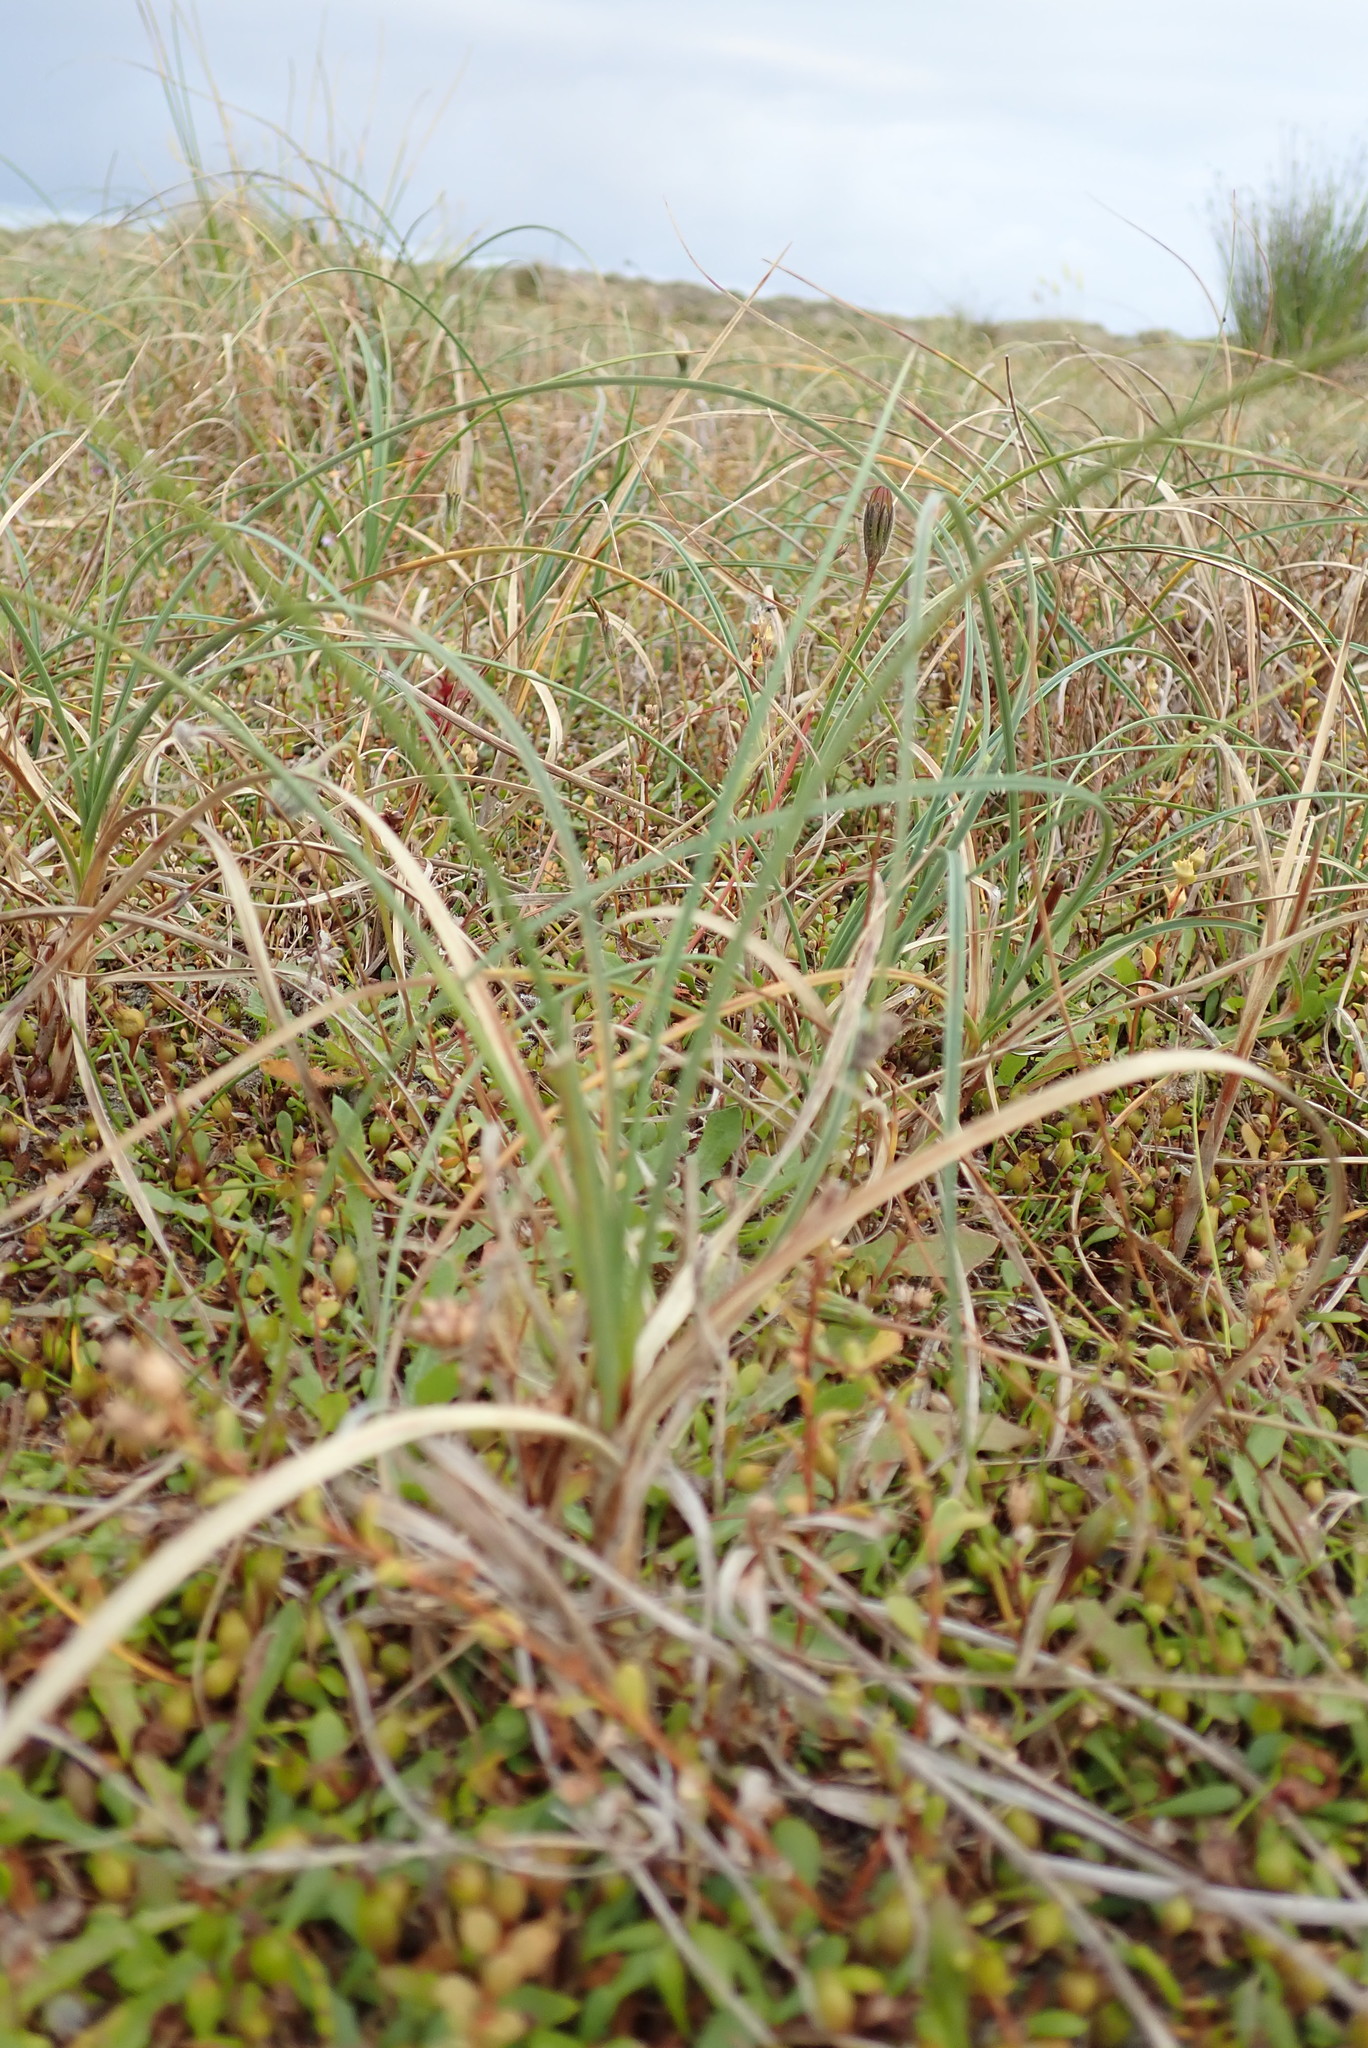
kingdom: Plantae
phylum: Tracheophyta
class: Liliopsida
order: Poales
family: Cyperaceae
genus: Carex
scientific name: Carex pumila
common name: Dwarf sedge
